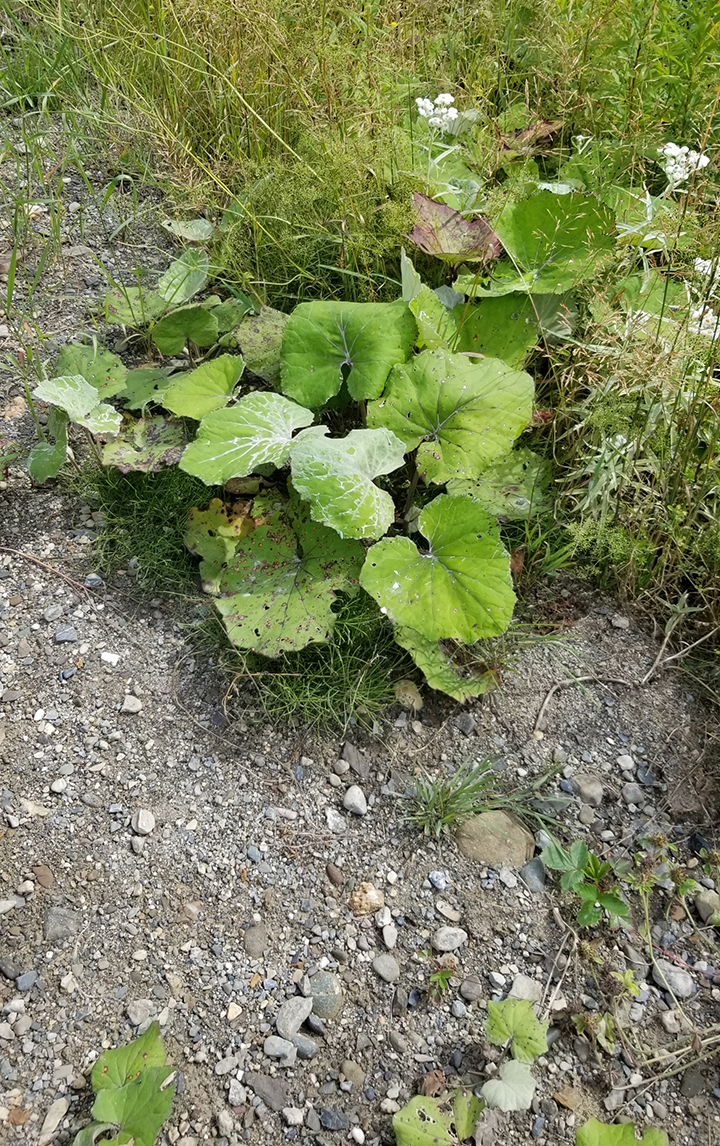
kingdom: Plantae
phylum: Tracheophyta
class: Magnoliopsida
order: Asterales
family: Asteraceae
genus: Tussilago
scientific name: Tussilago farfara
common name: Coltsfoot
